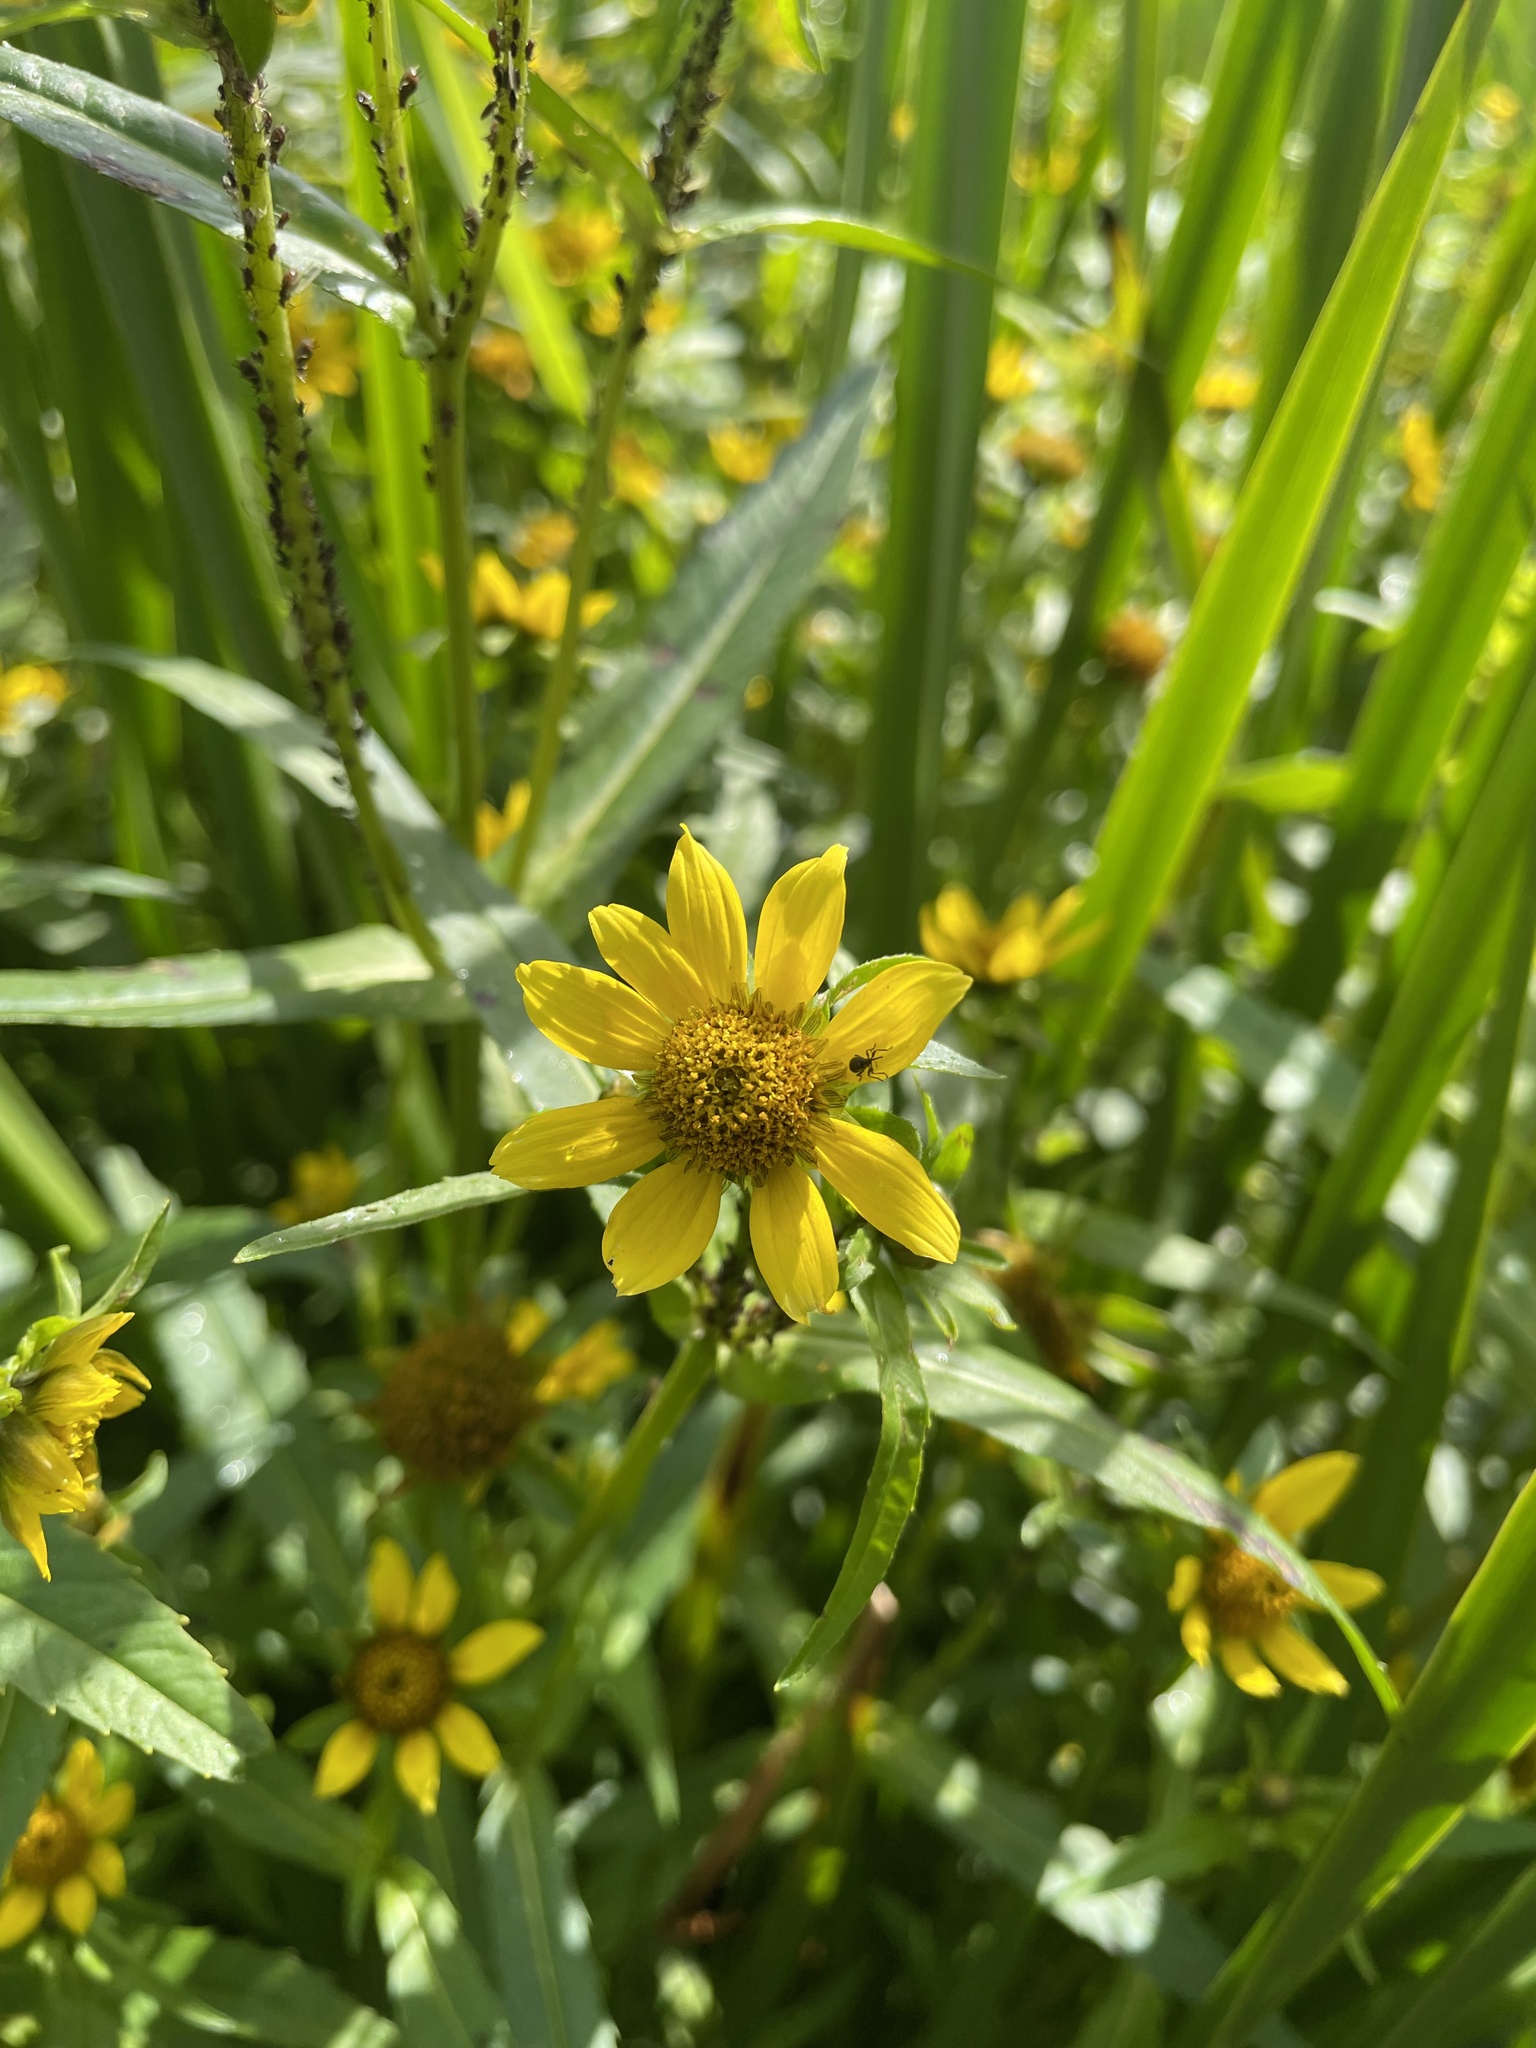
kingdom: Plantae
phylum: Tracheophyta
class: Magnoliopsida
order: Asterales
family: Asteraceae
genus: Bidens
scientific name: Bidens cernua
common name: Nodding bur-marigold
